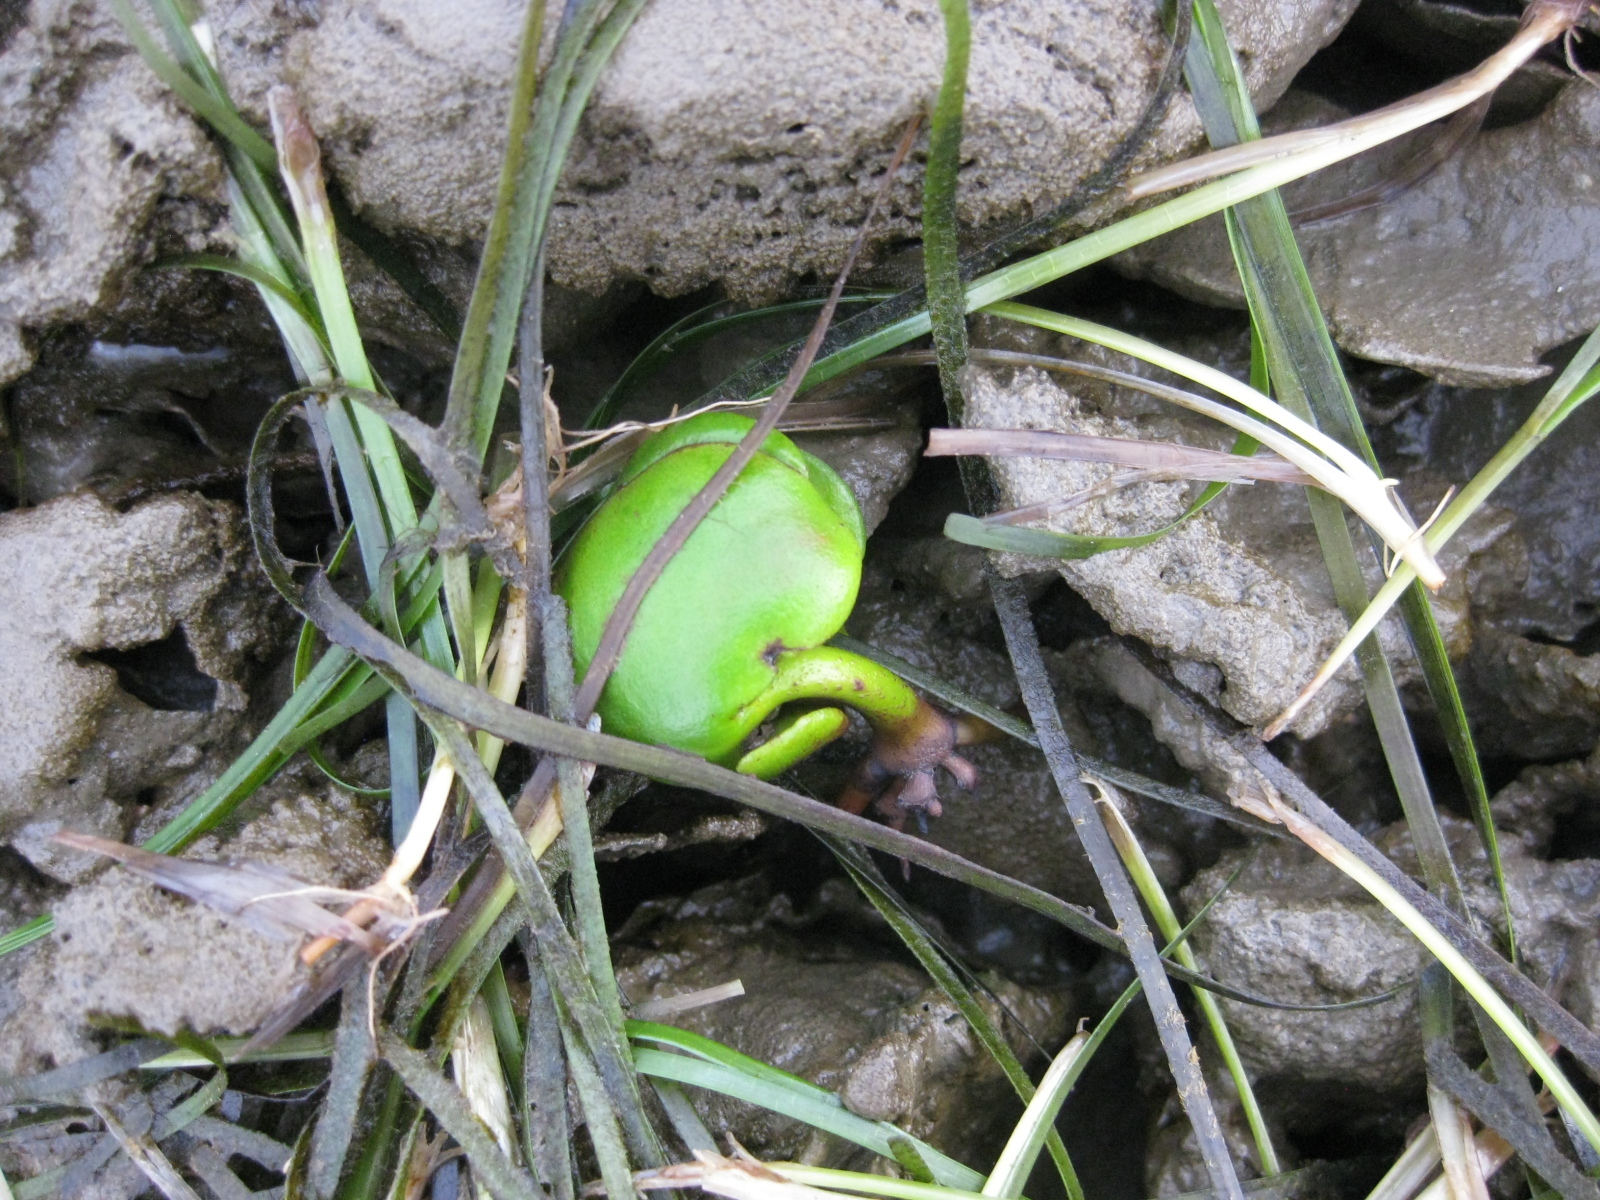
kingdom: Plantae
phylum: Tracheophyta
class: Magnoliopsida
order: Lamiales
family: Acanthaceae
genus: Avicennia
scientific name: Avicennia marina
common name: Gray mangrove
